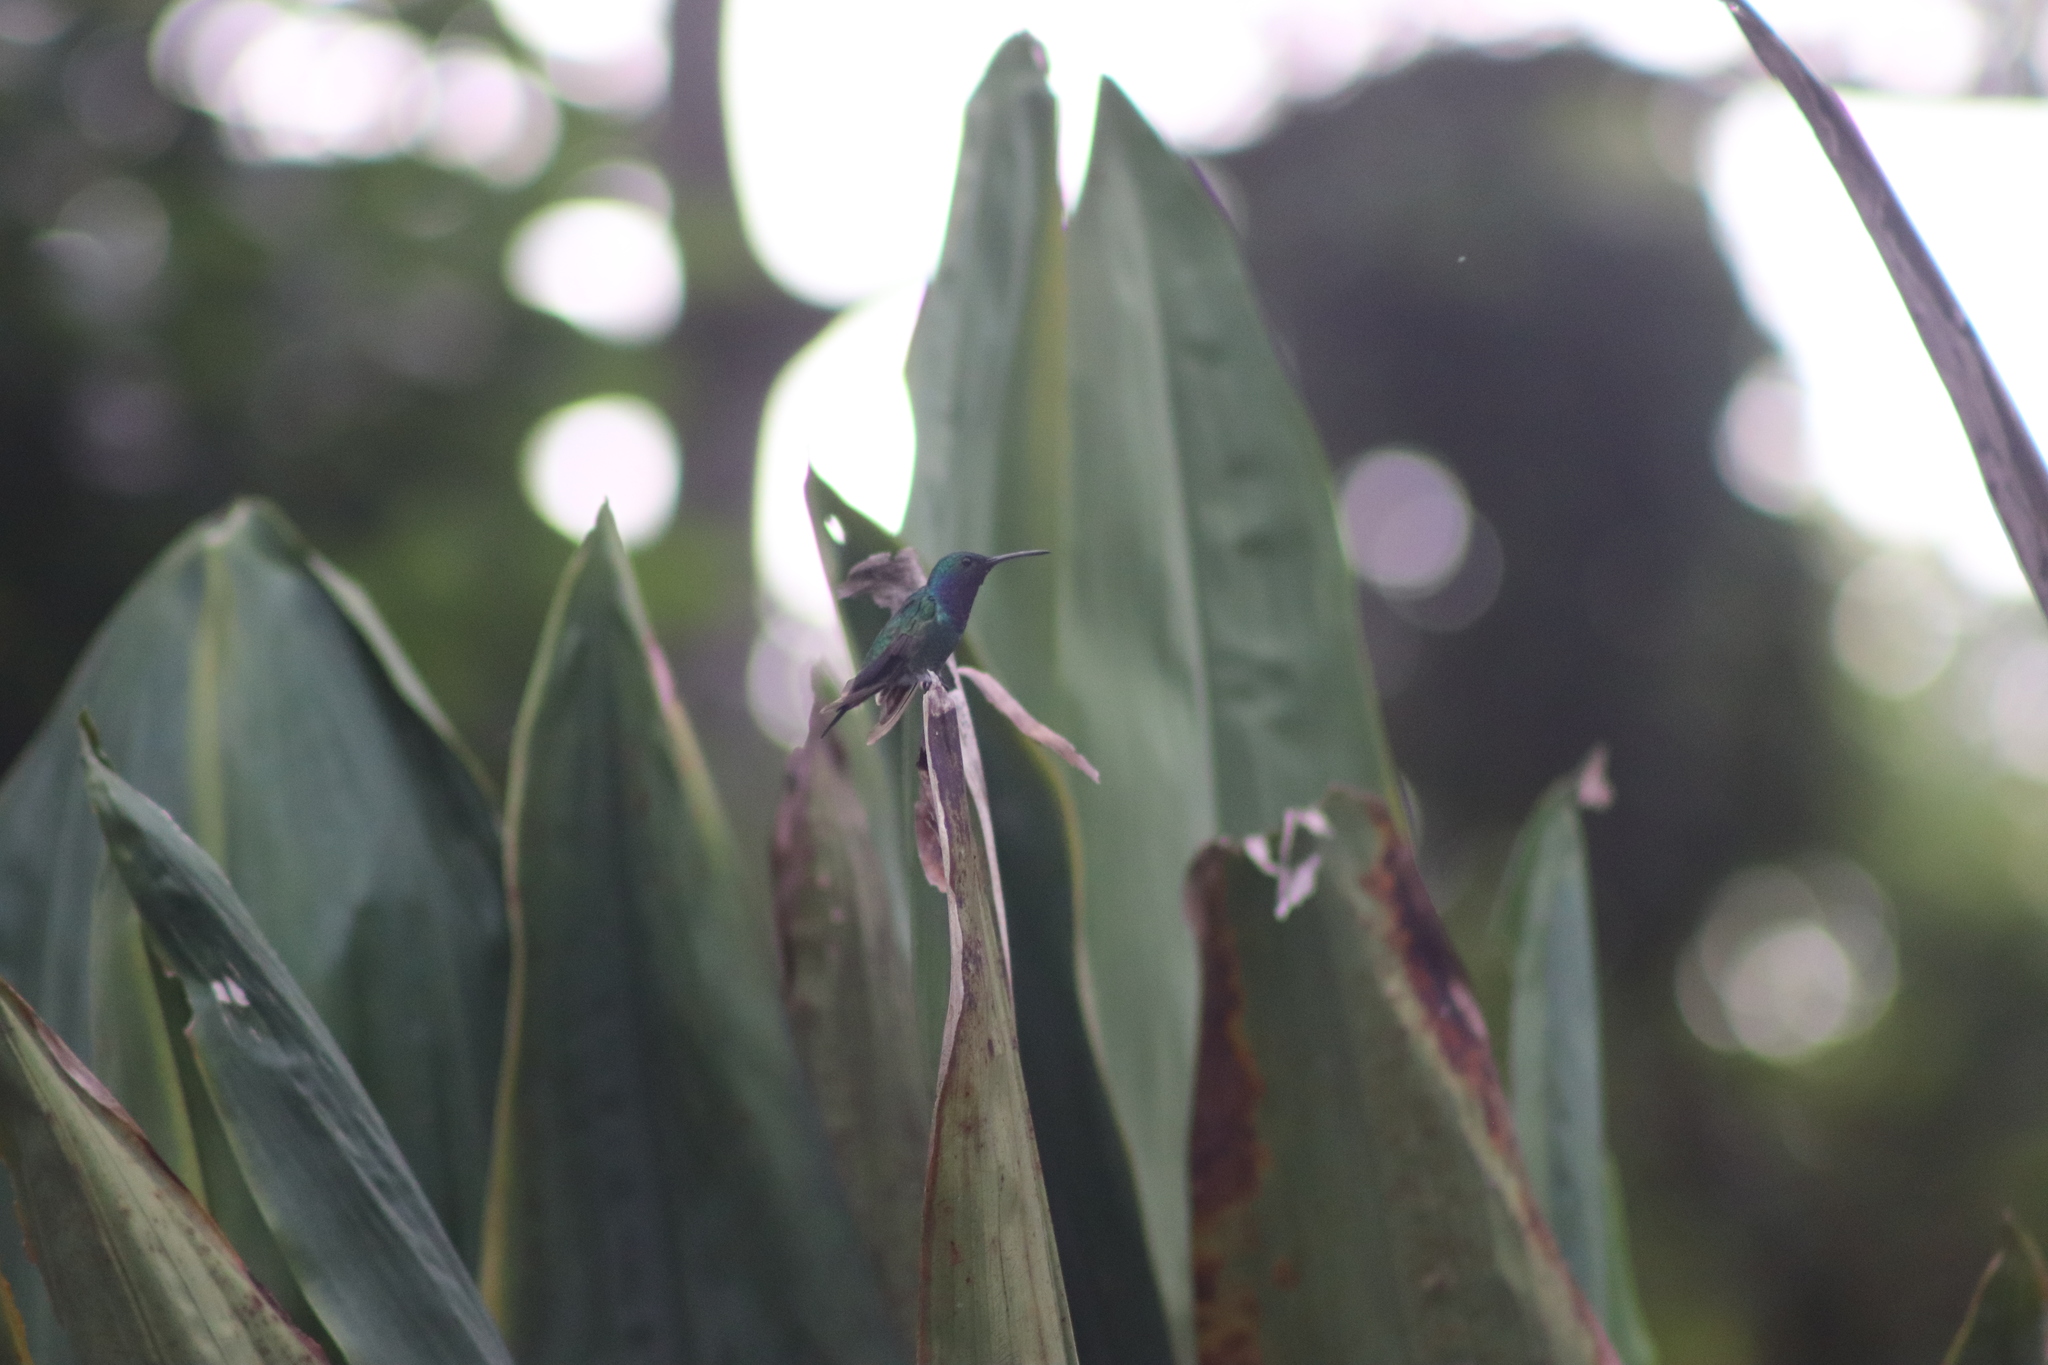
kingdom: Animalia
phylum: Chordata
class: Aves
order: Apodiformes
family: Trochilidae
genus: Chrysuronia
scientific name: Chrysuronia coeruleogularis
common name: Sapphire-throated hummingbird
